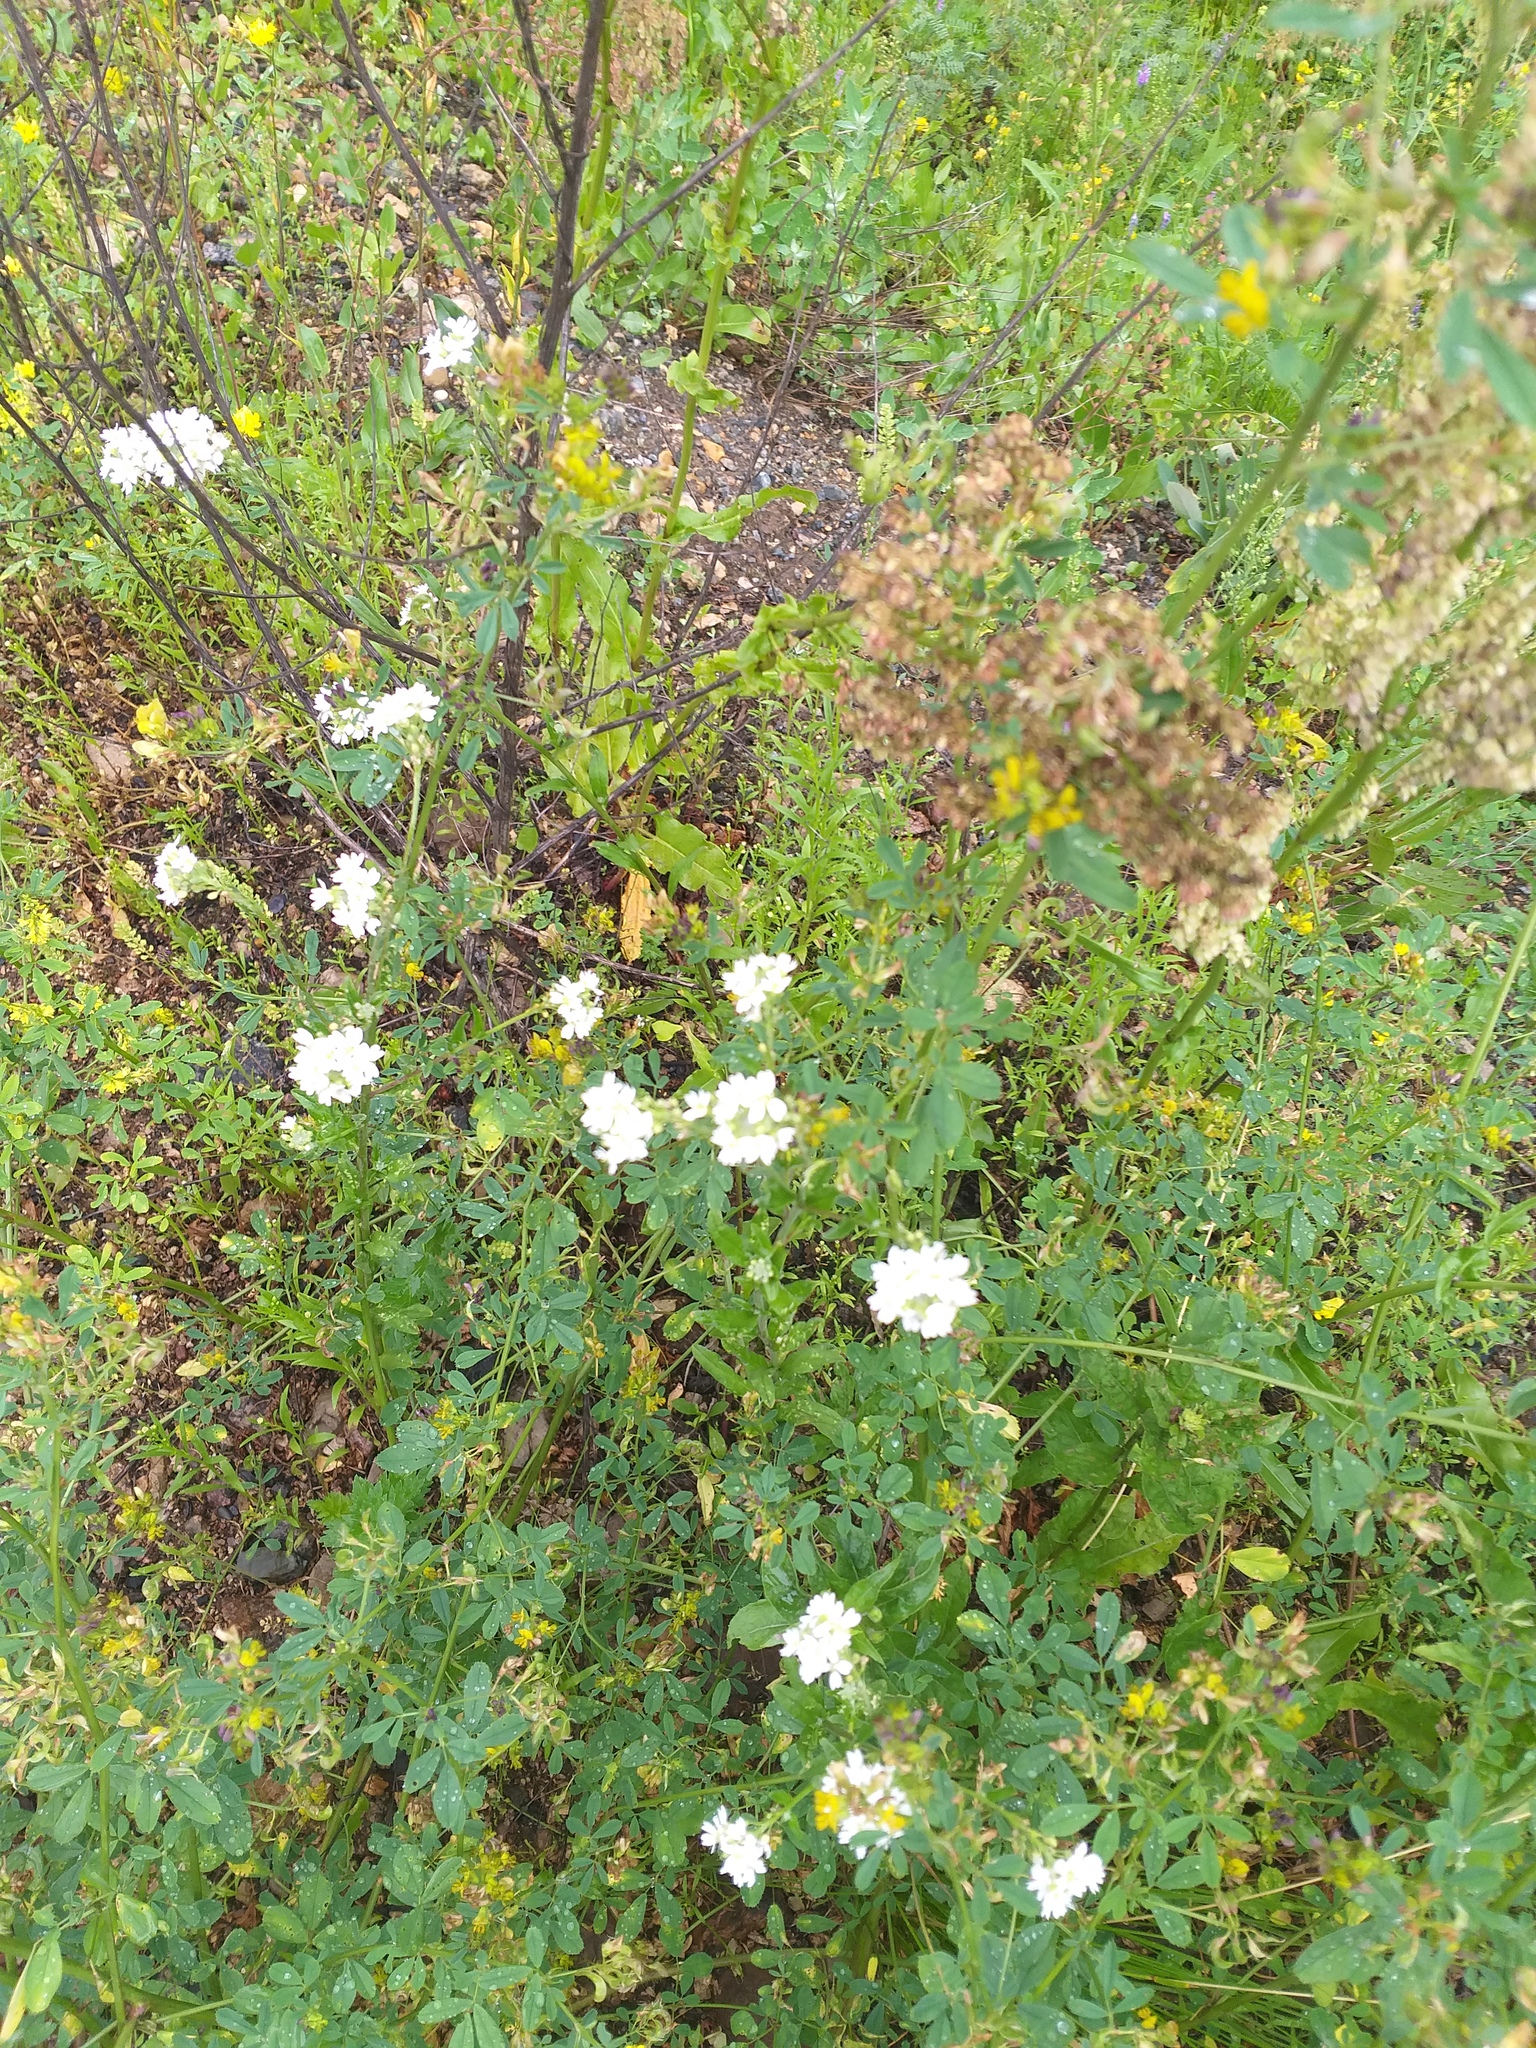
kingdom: Plantae
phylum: Tracheophyta
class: Magnoliopsida
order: Brassicales
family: Brassicaceae
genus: Berteroa
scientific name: Berteroa incana
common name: Hoary alison
